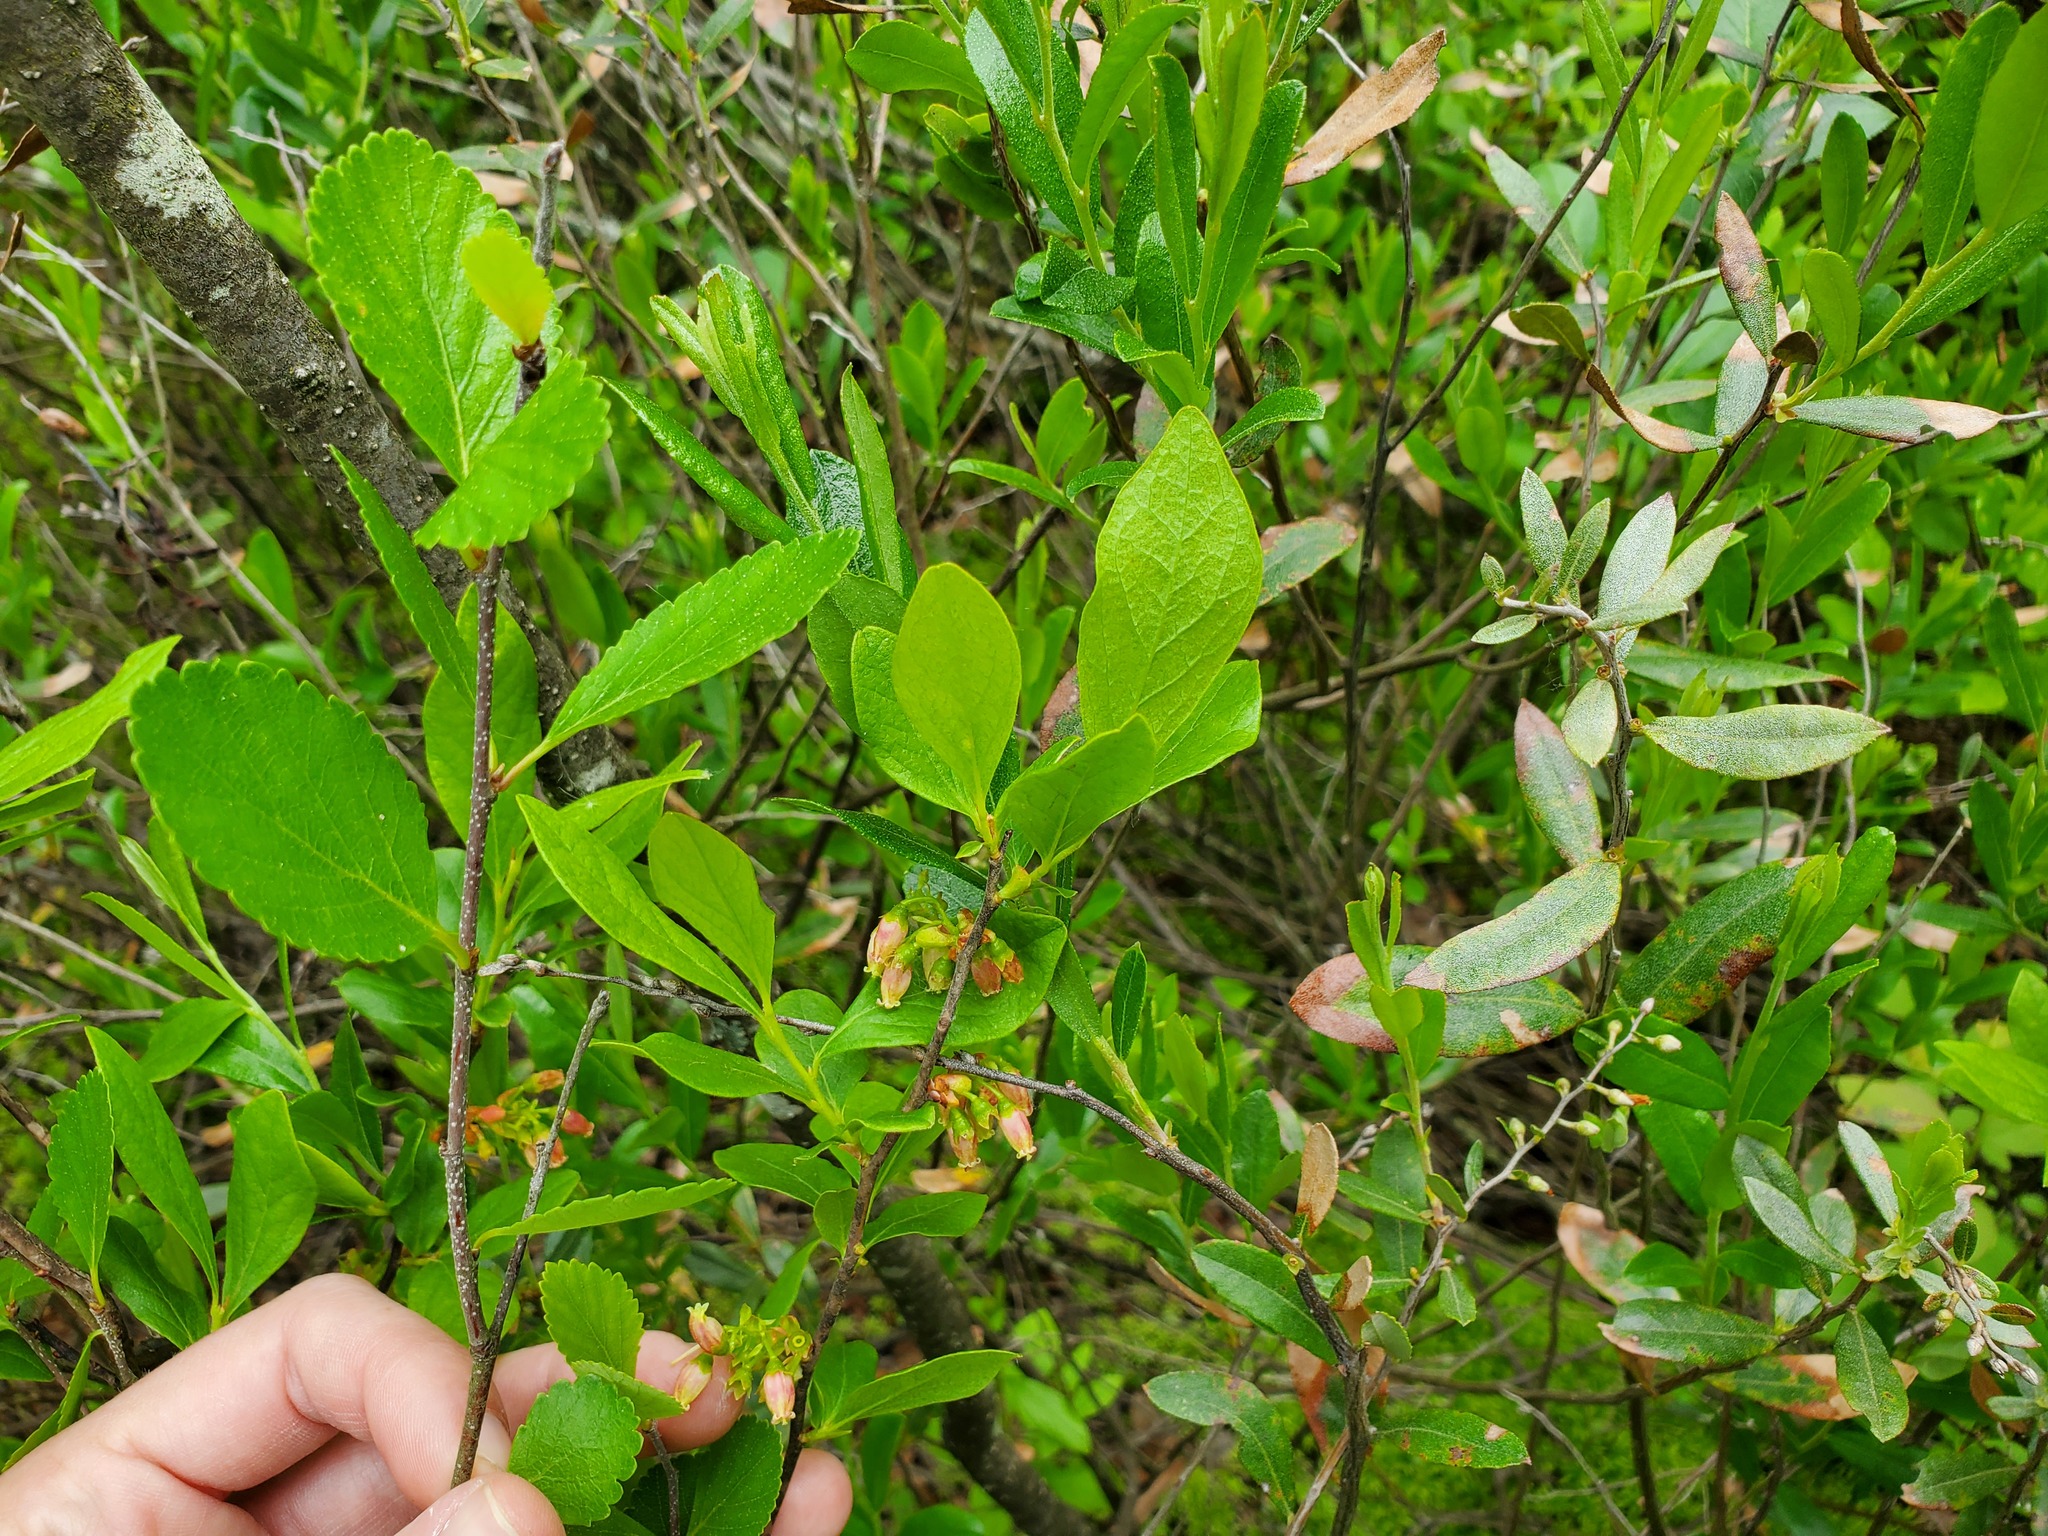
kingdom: Plantae
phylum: Tracheophyta
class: Magnoliopsida
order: Ericales
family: Ericaceae
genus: Chamaedaphne
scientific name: Chamaedaphne calyculata
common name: Leatherleaf
